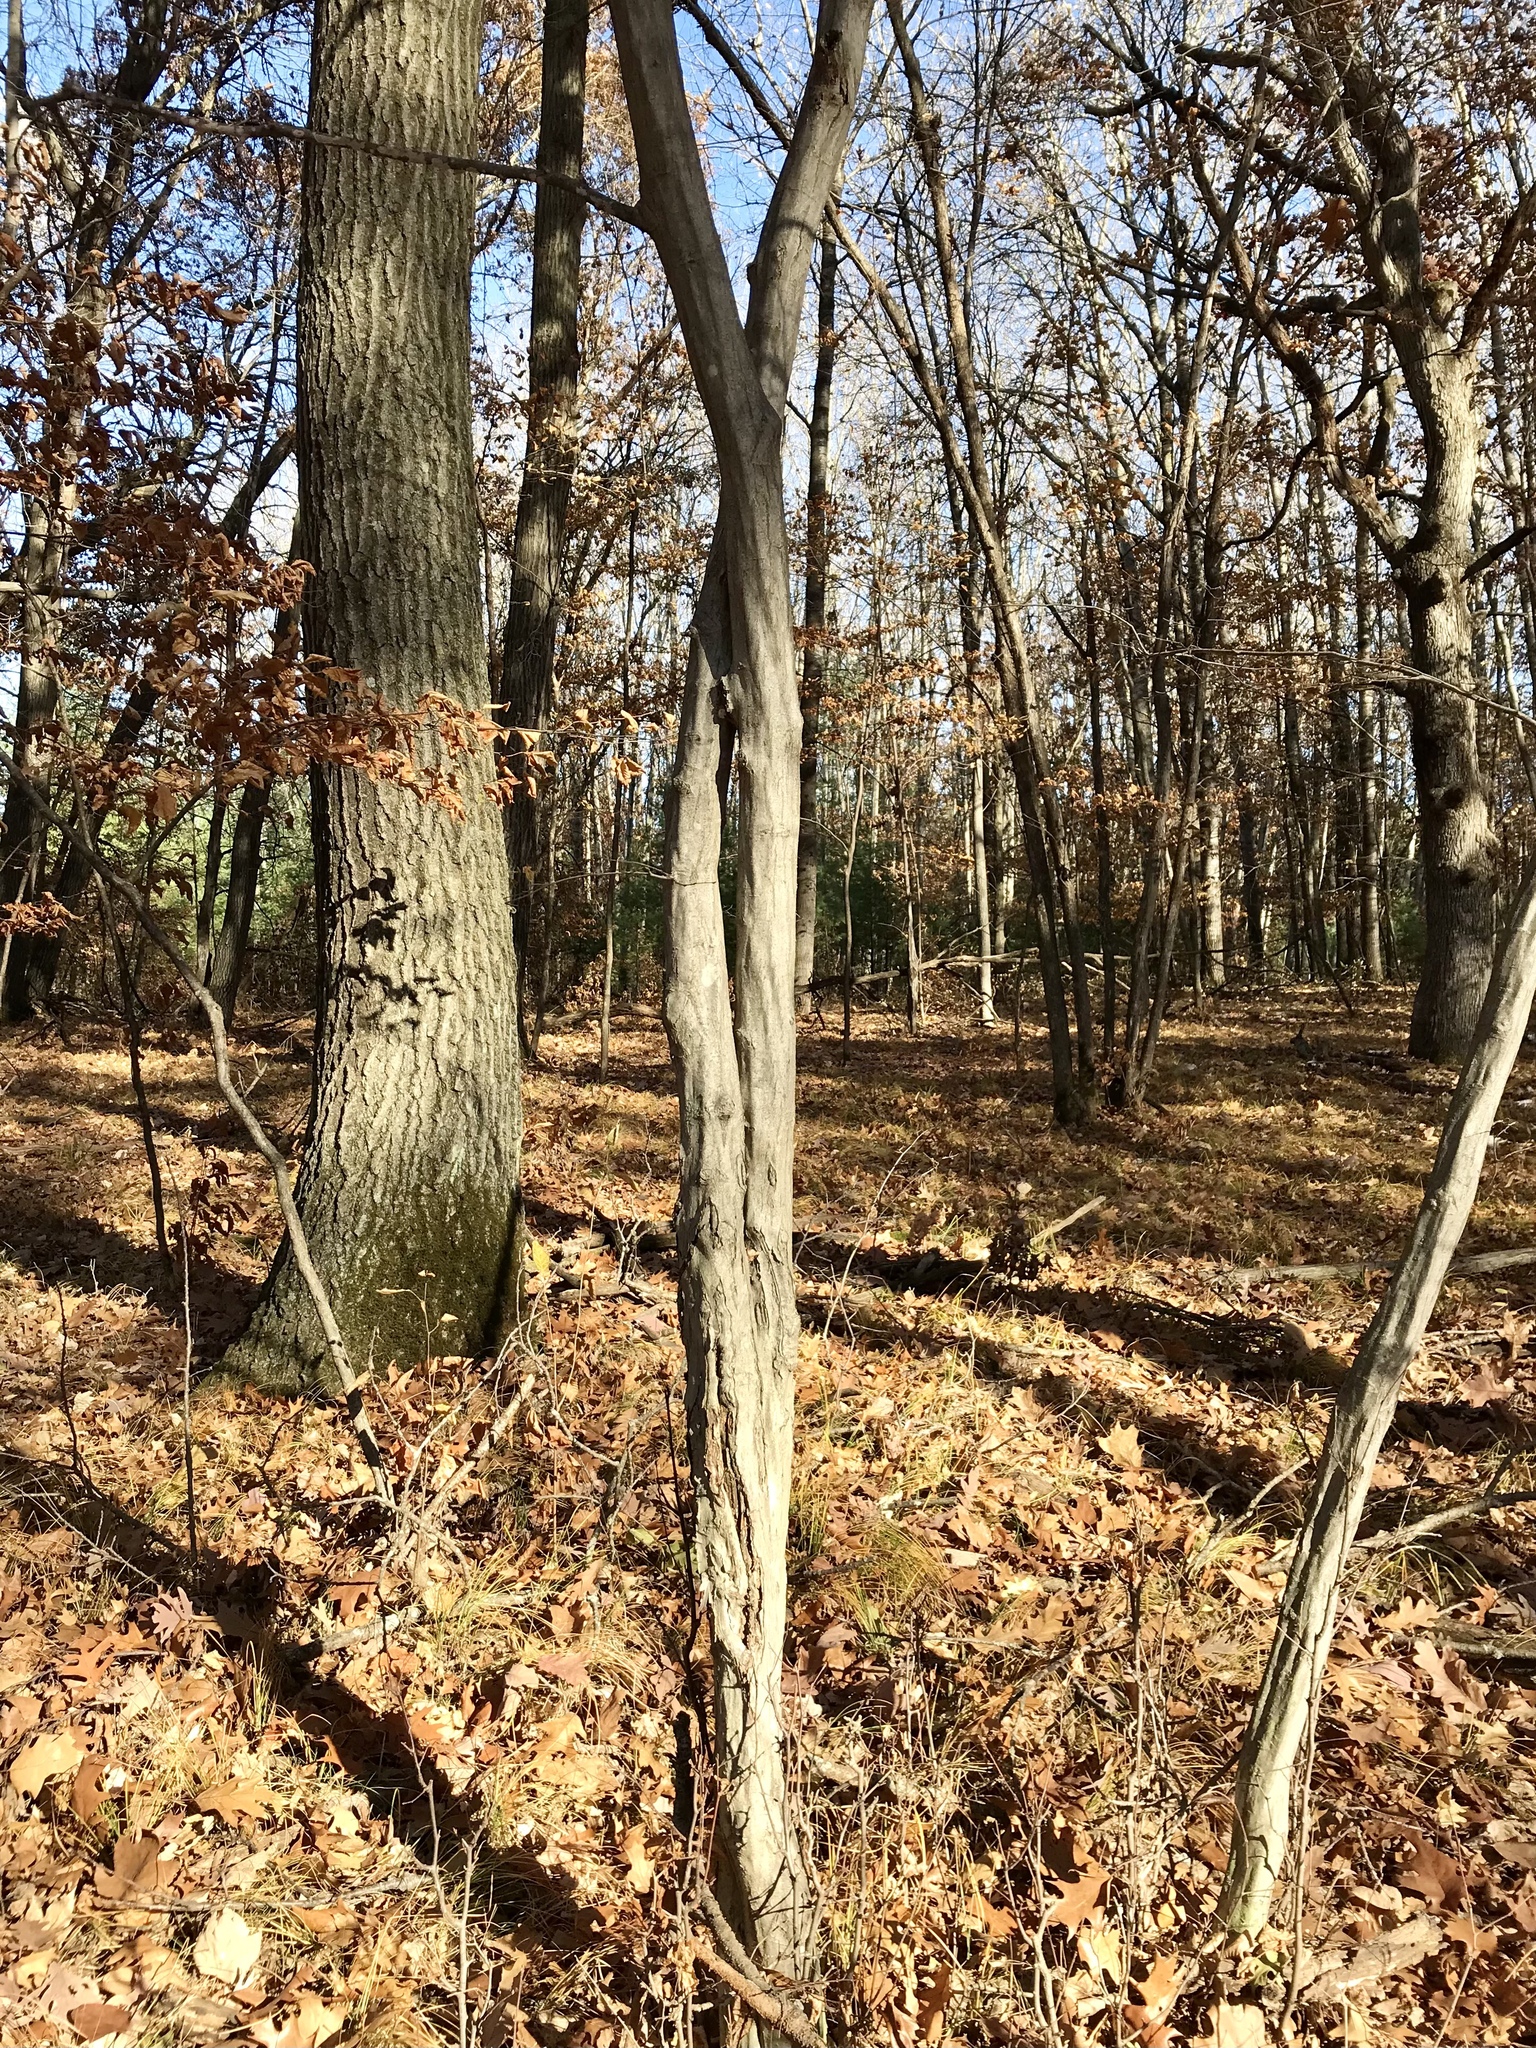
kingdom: Plantae
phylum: Tracheophyta
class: Magnoliopsida
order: Fagales
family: Betulaceae
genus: Carpinus
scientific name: Carpinus caroliniana
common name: American hornbeam
